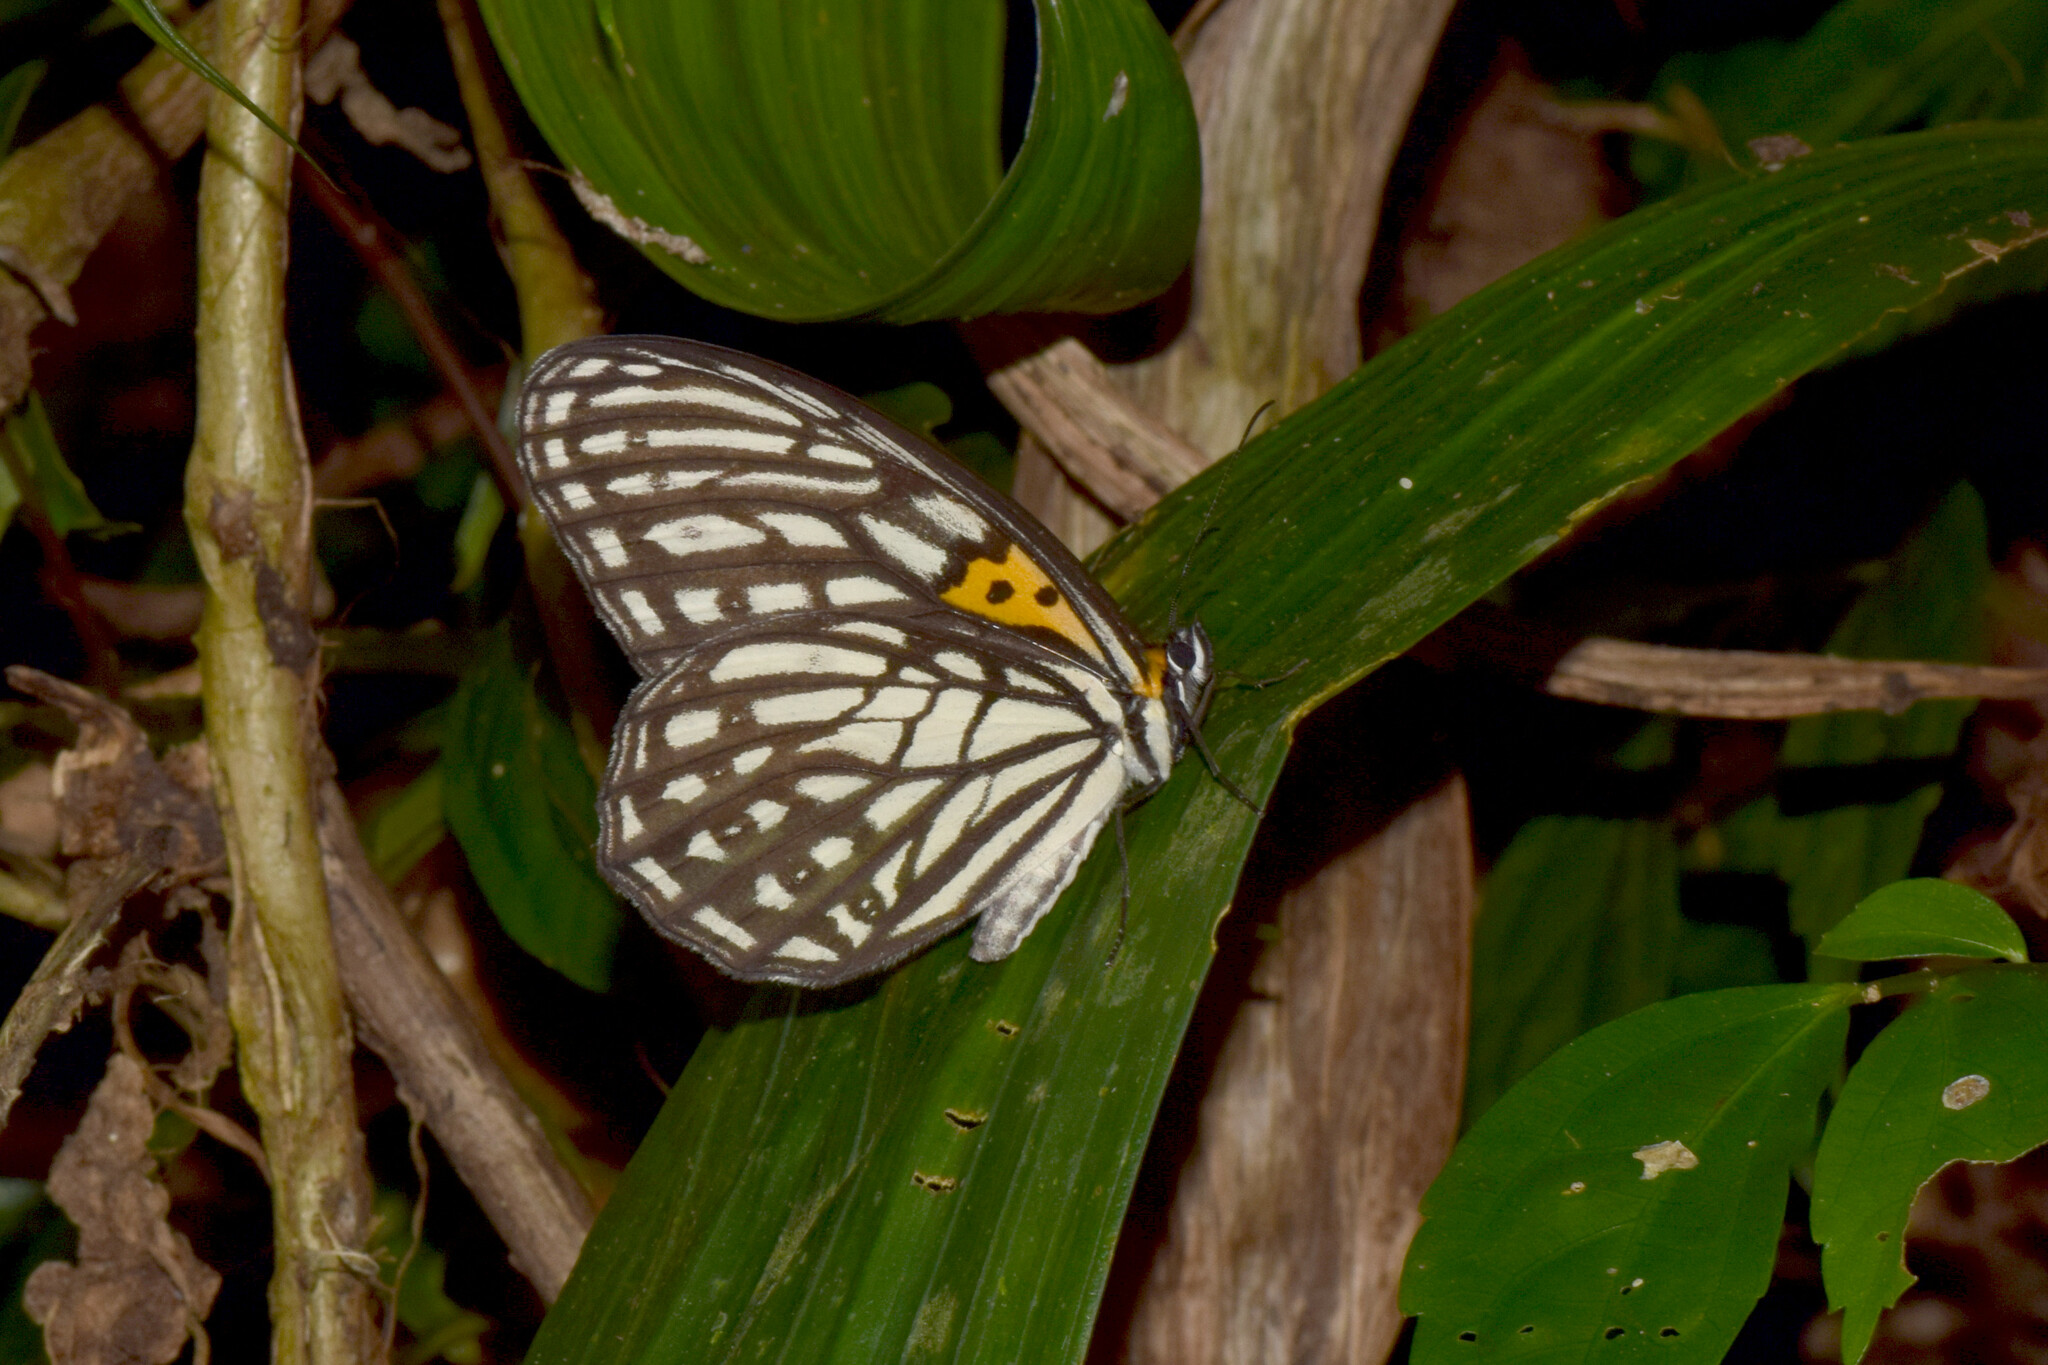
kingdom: Animalia
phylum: Arthropoda
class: Insecta
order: Lepidoptera
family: Nymphalidae
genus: Orinoma
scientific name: Orinoma damaris
